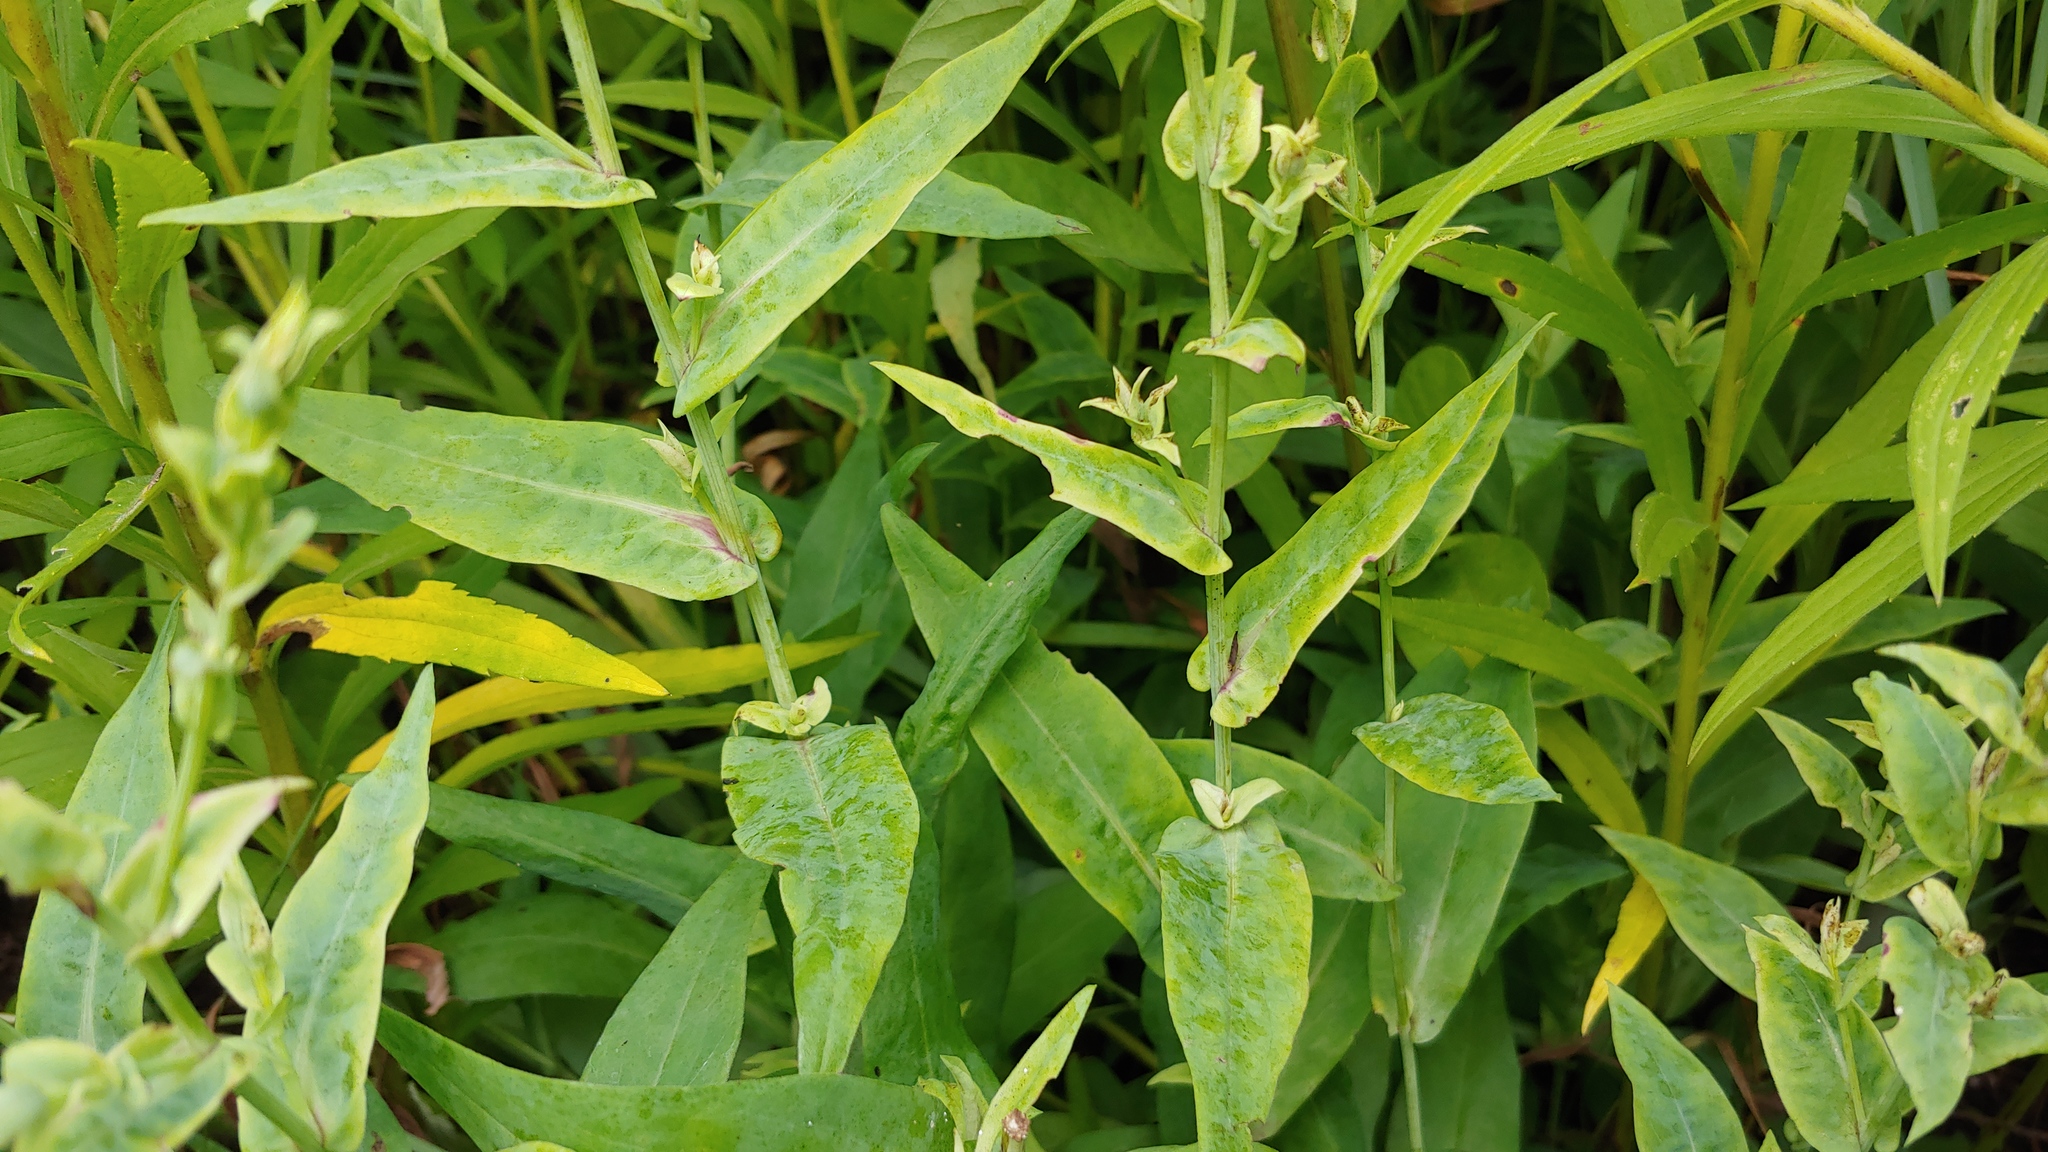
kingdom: Plantae
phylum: Tracheophyta
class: Magnoliopsida
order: Asterales
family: Asteraceae
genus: Symphyotrichum
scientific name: Symphyotrichum laeve
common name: Glaucous aster
